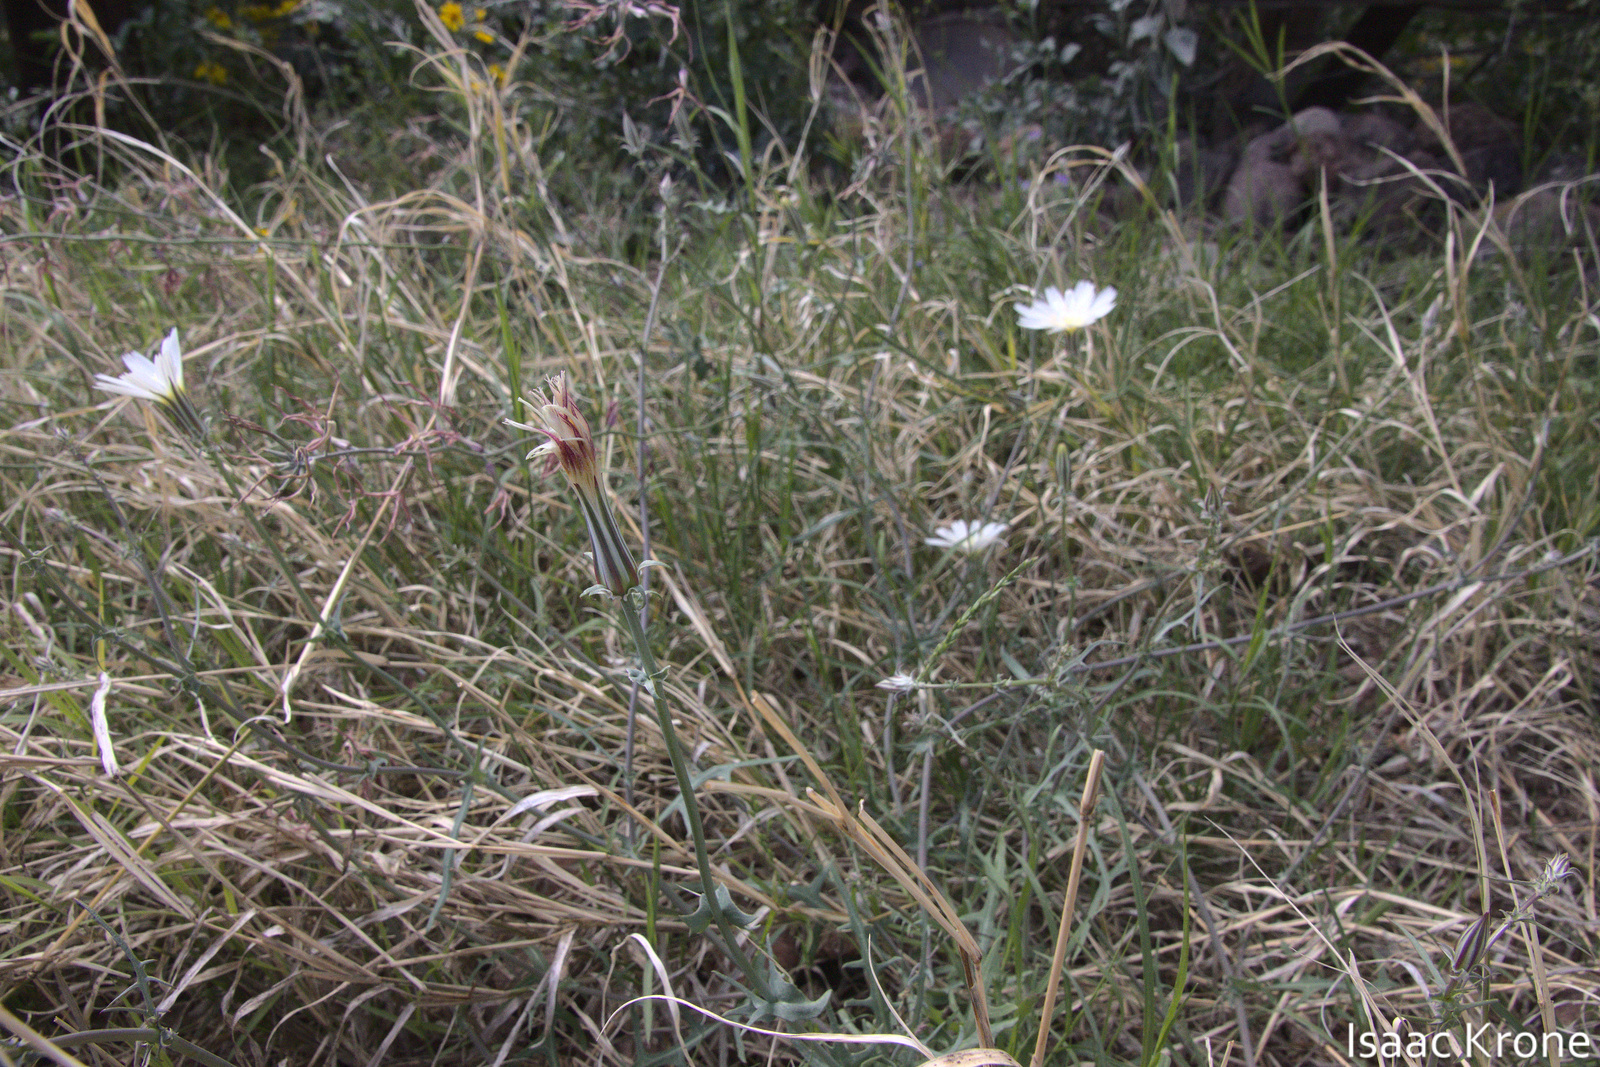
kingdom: Plantae
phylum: Tracheophyta
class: Magnoliopsida
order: Asterales
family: Asteraceae
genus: Rafinesquia
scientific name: Rafinesquia neomexicana
